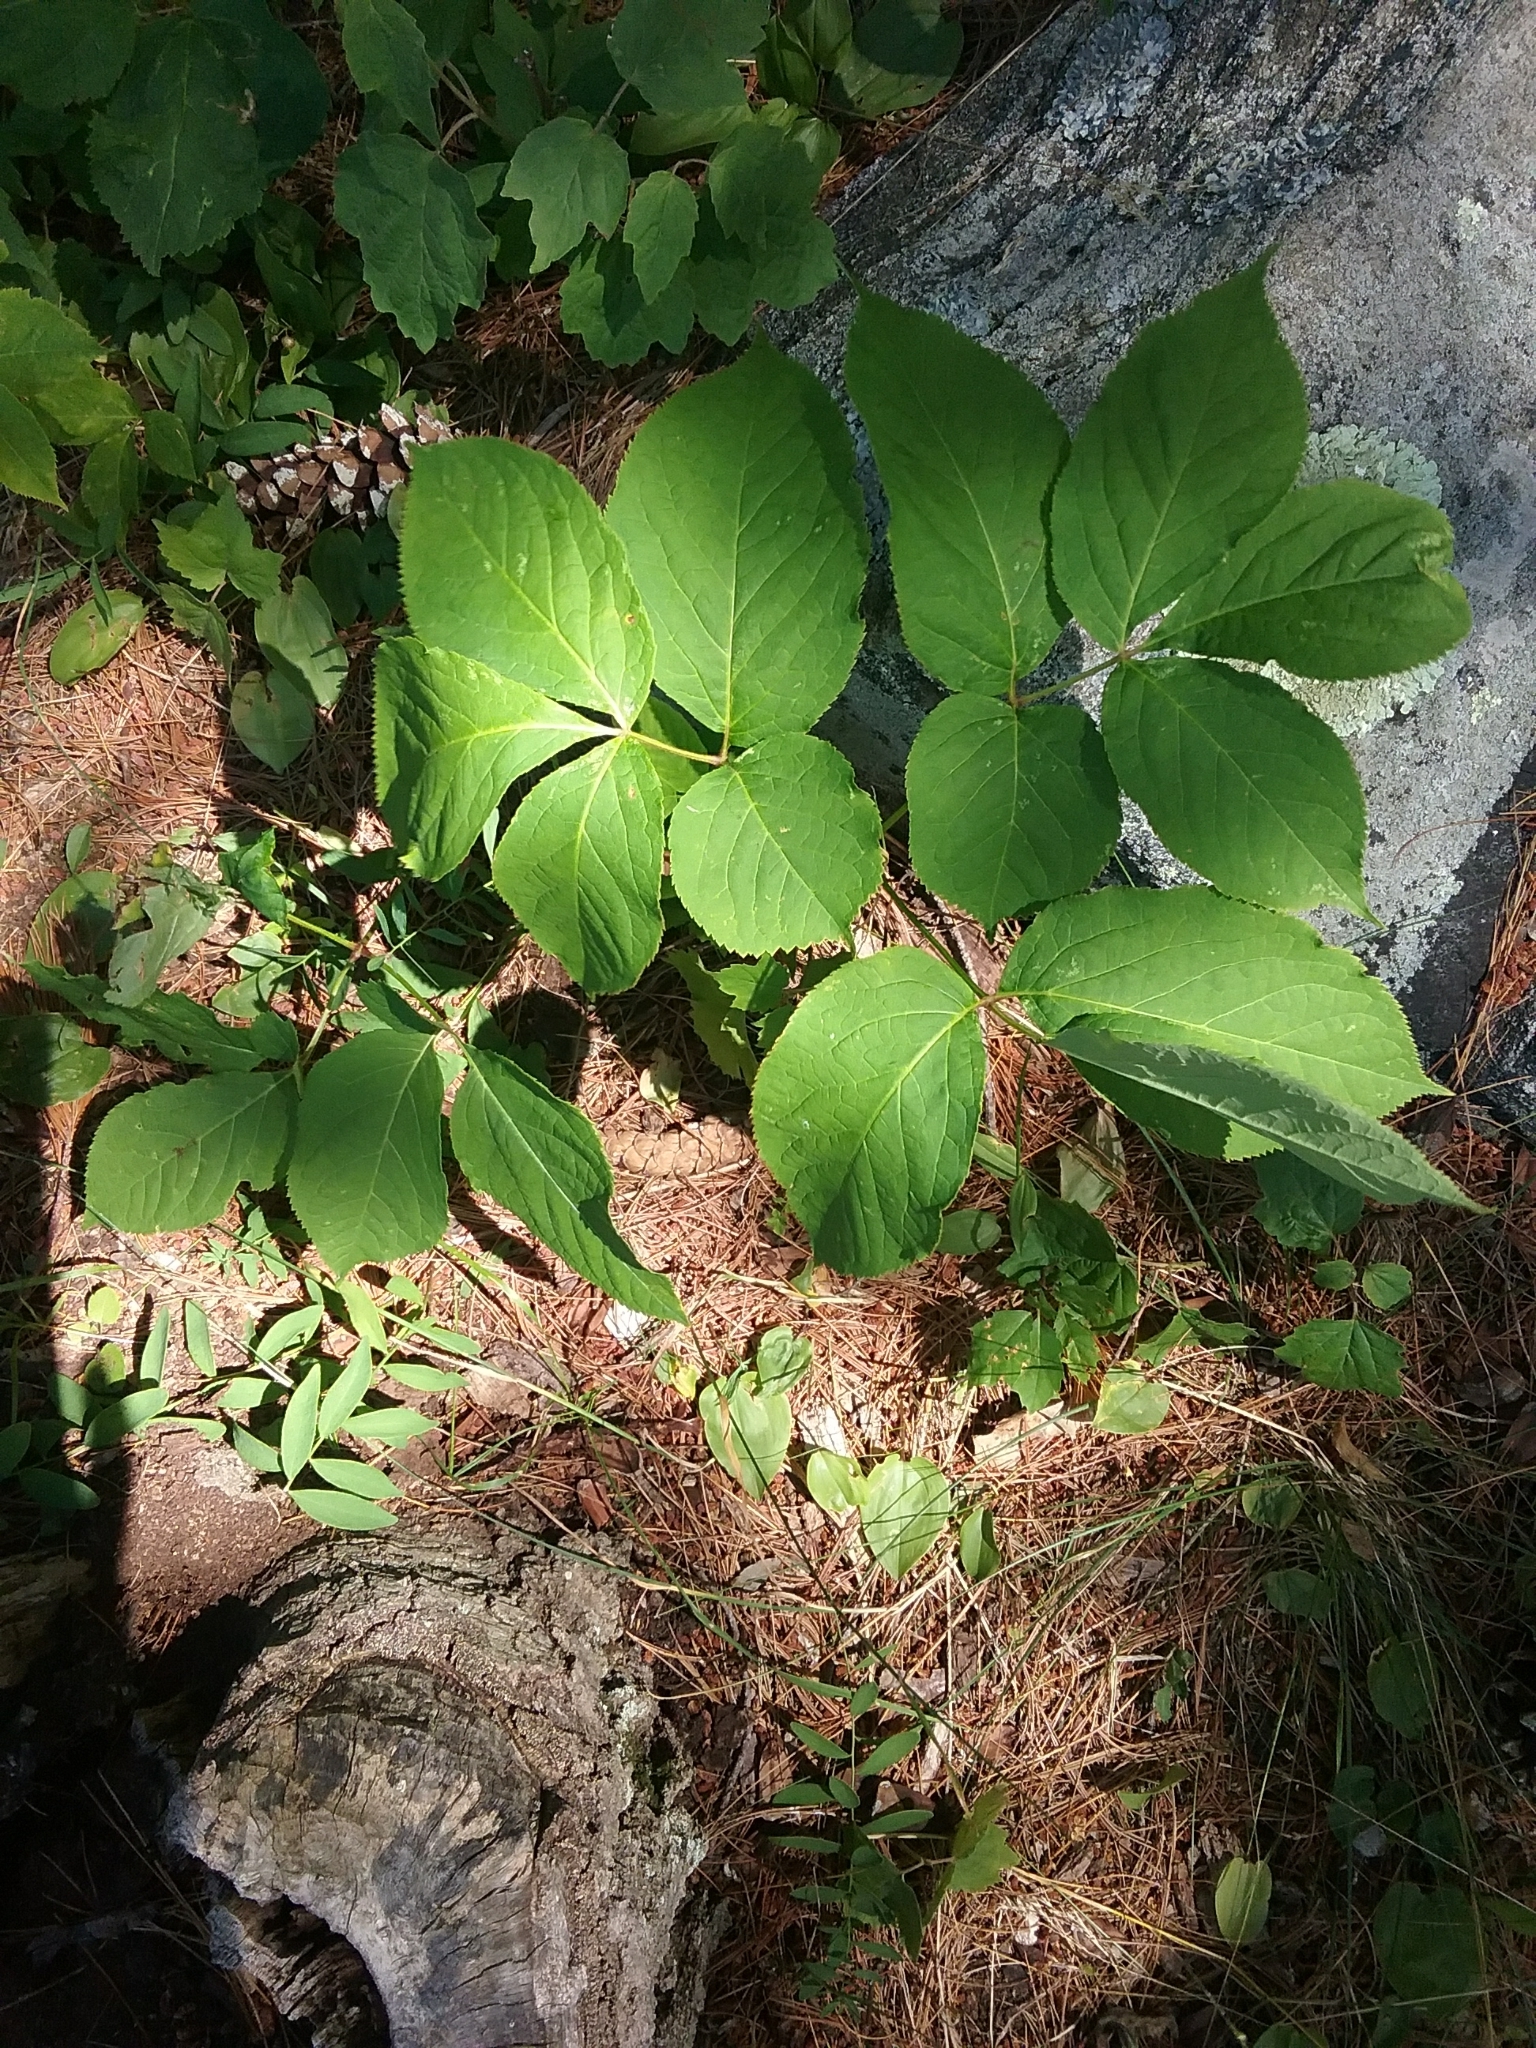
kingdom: Plantae
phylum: Tracheophyta
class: Magnoliopsida
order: Apiales
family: Araliaceae
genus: Aralia
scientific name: Aralia nudicaulis
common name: Wild sarsaparilla
